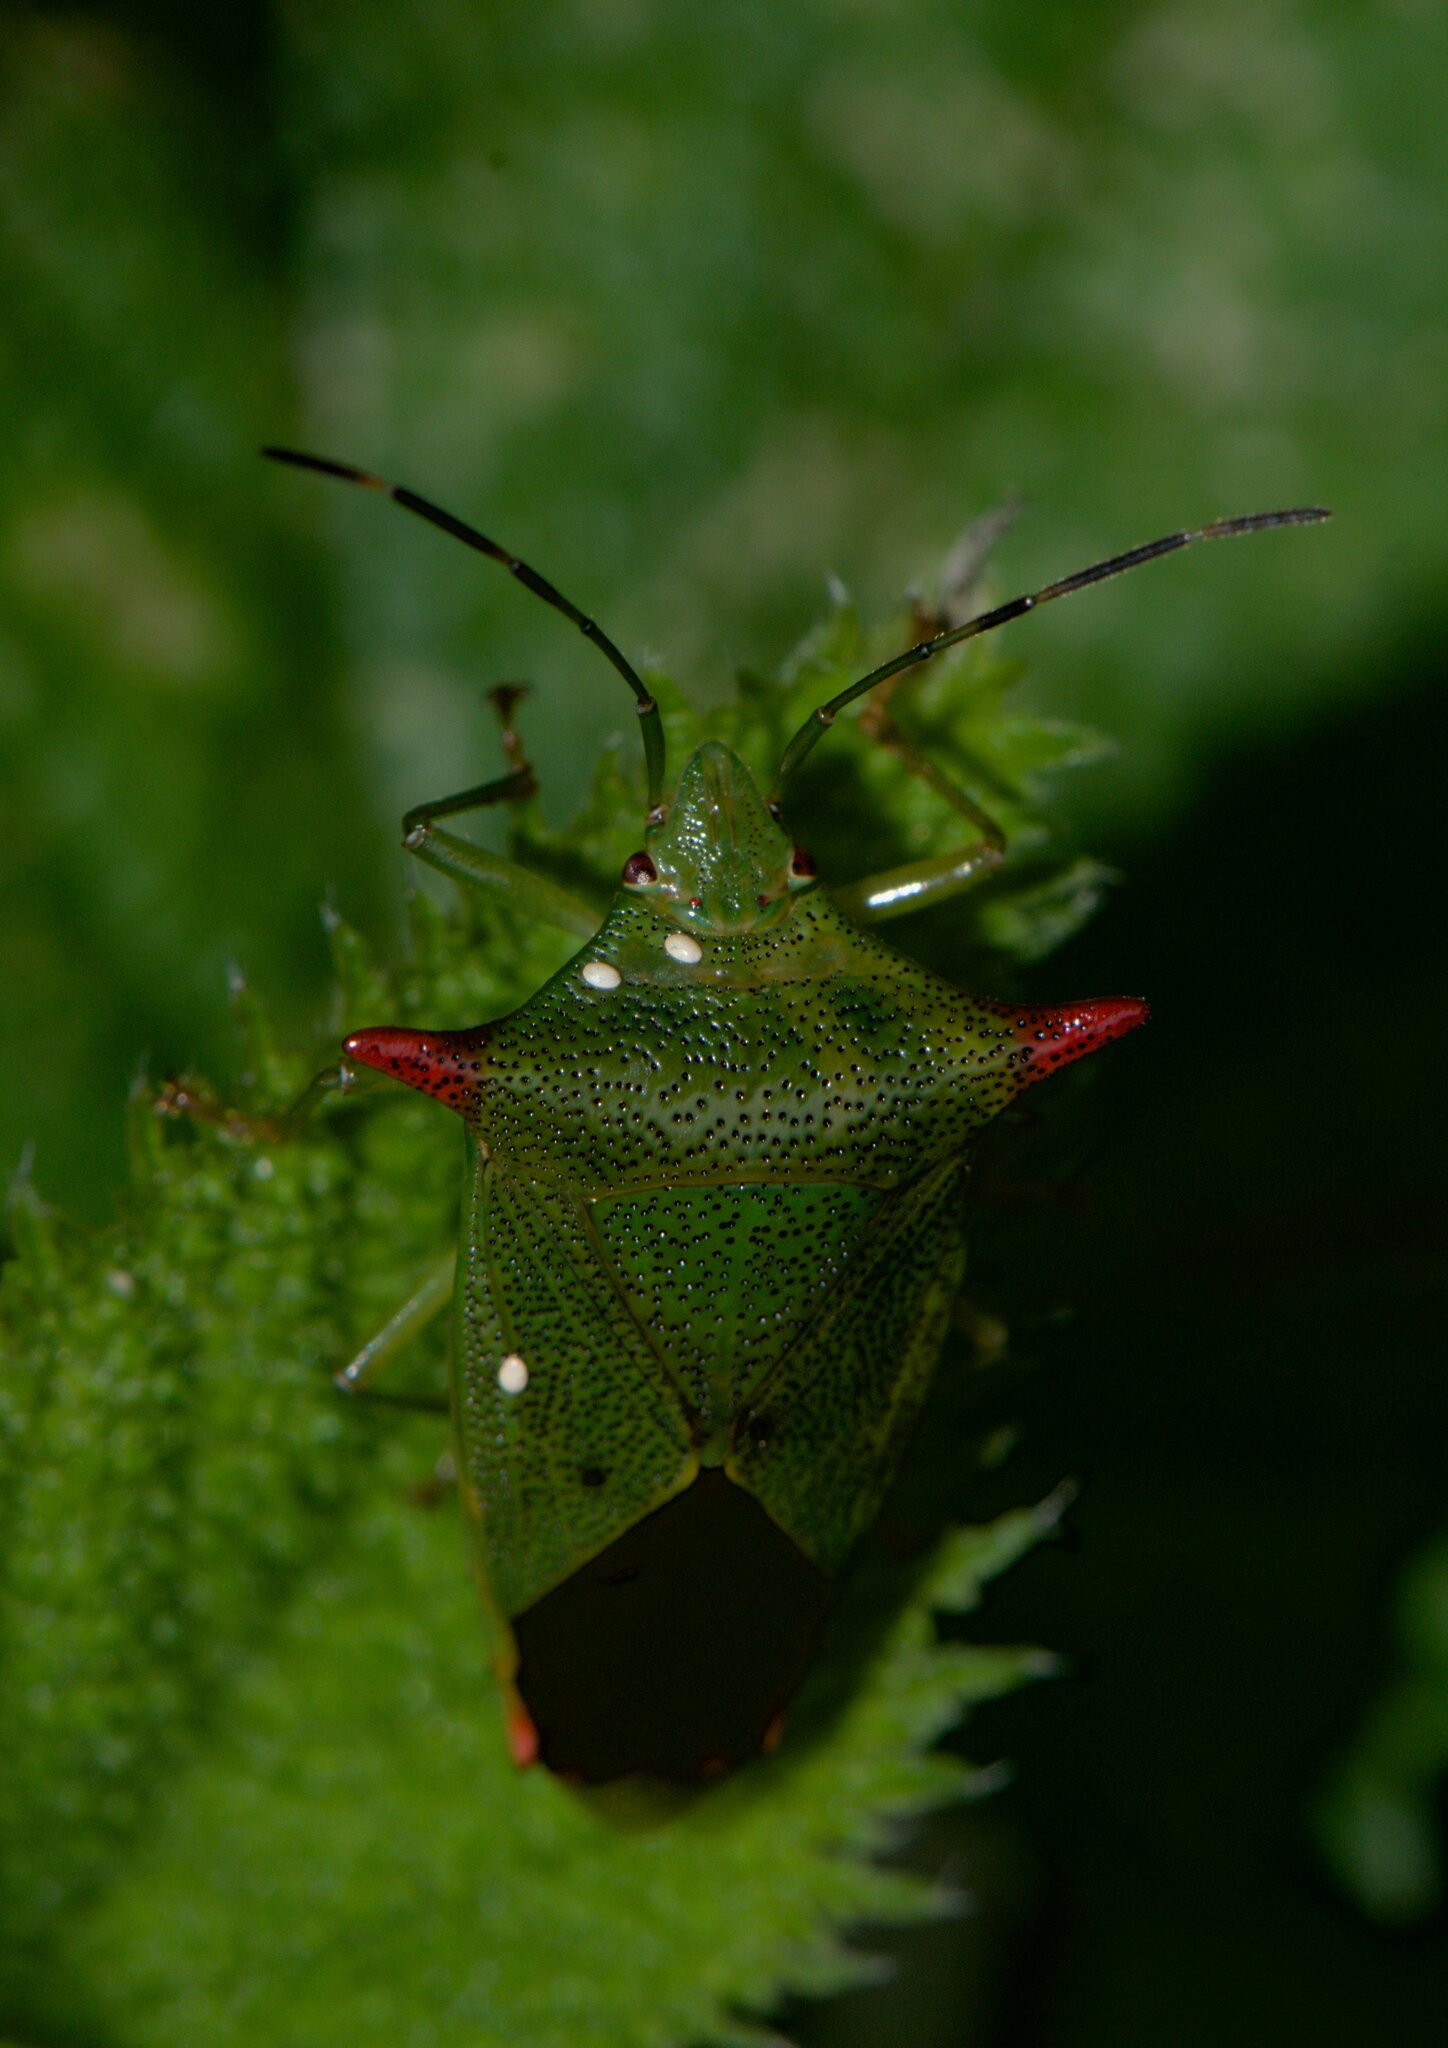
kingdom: Animalia
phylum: Arthropoda
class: Insecta
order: Hemiptera
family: Acanthosomatidae
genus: Acanthosoma
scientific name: Acanthosoma rufispinum
